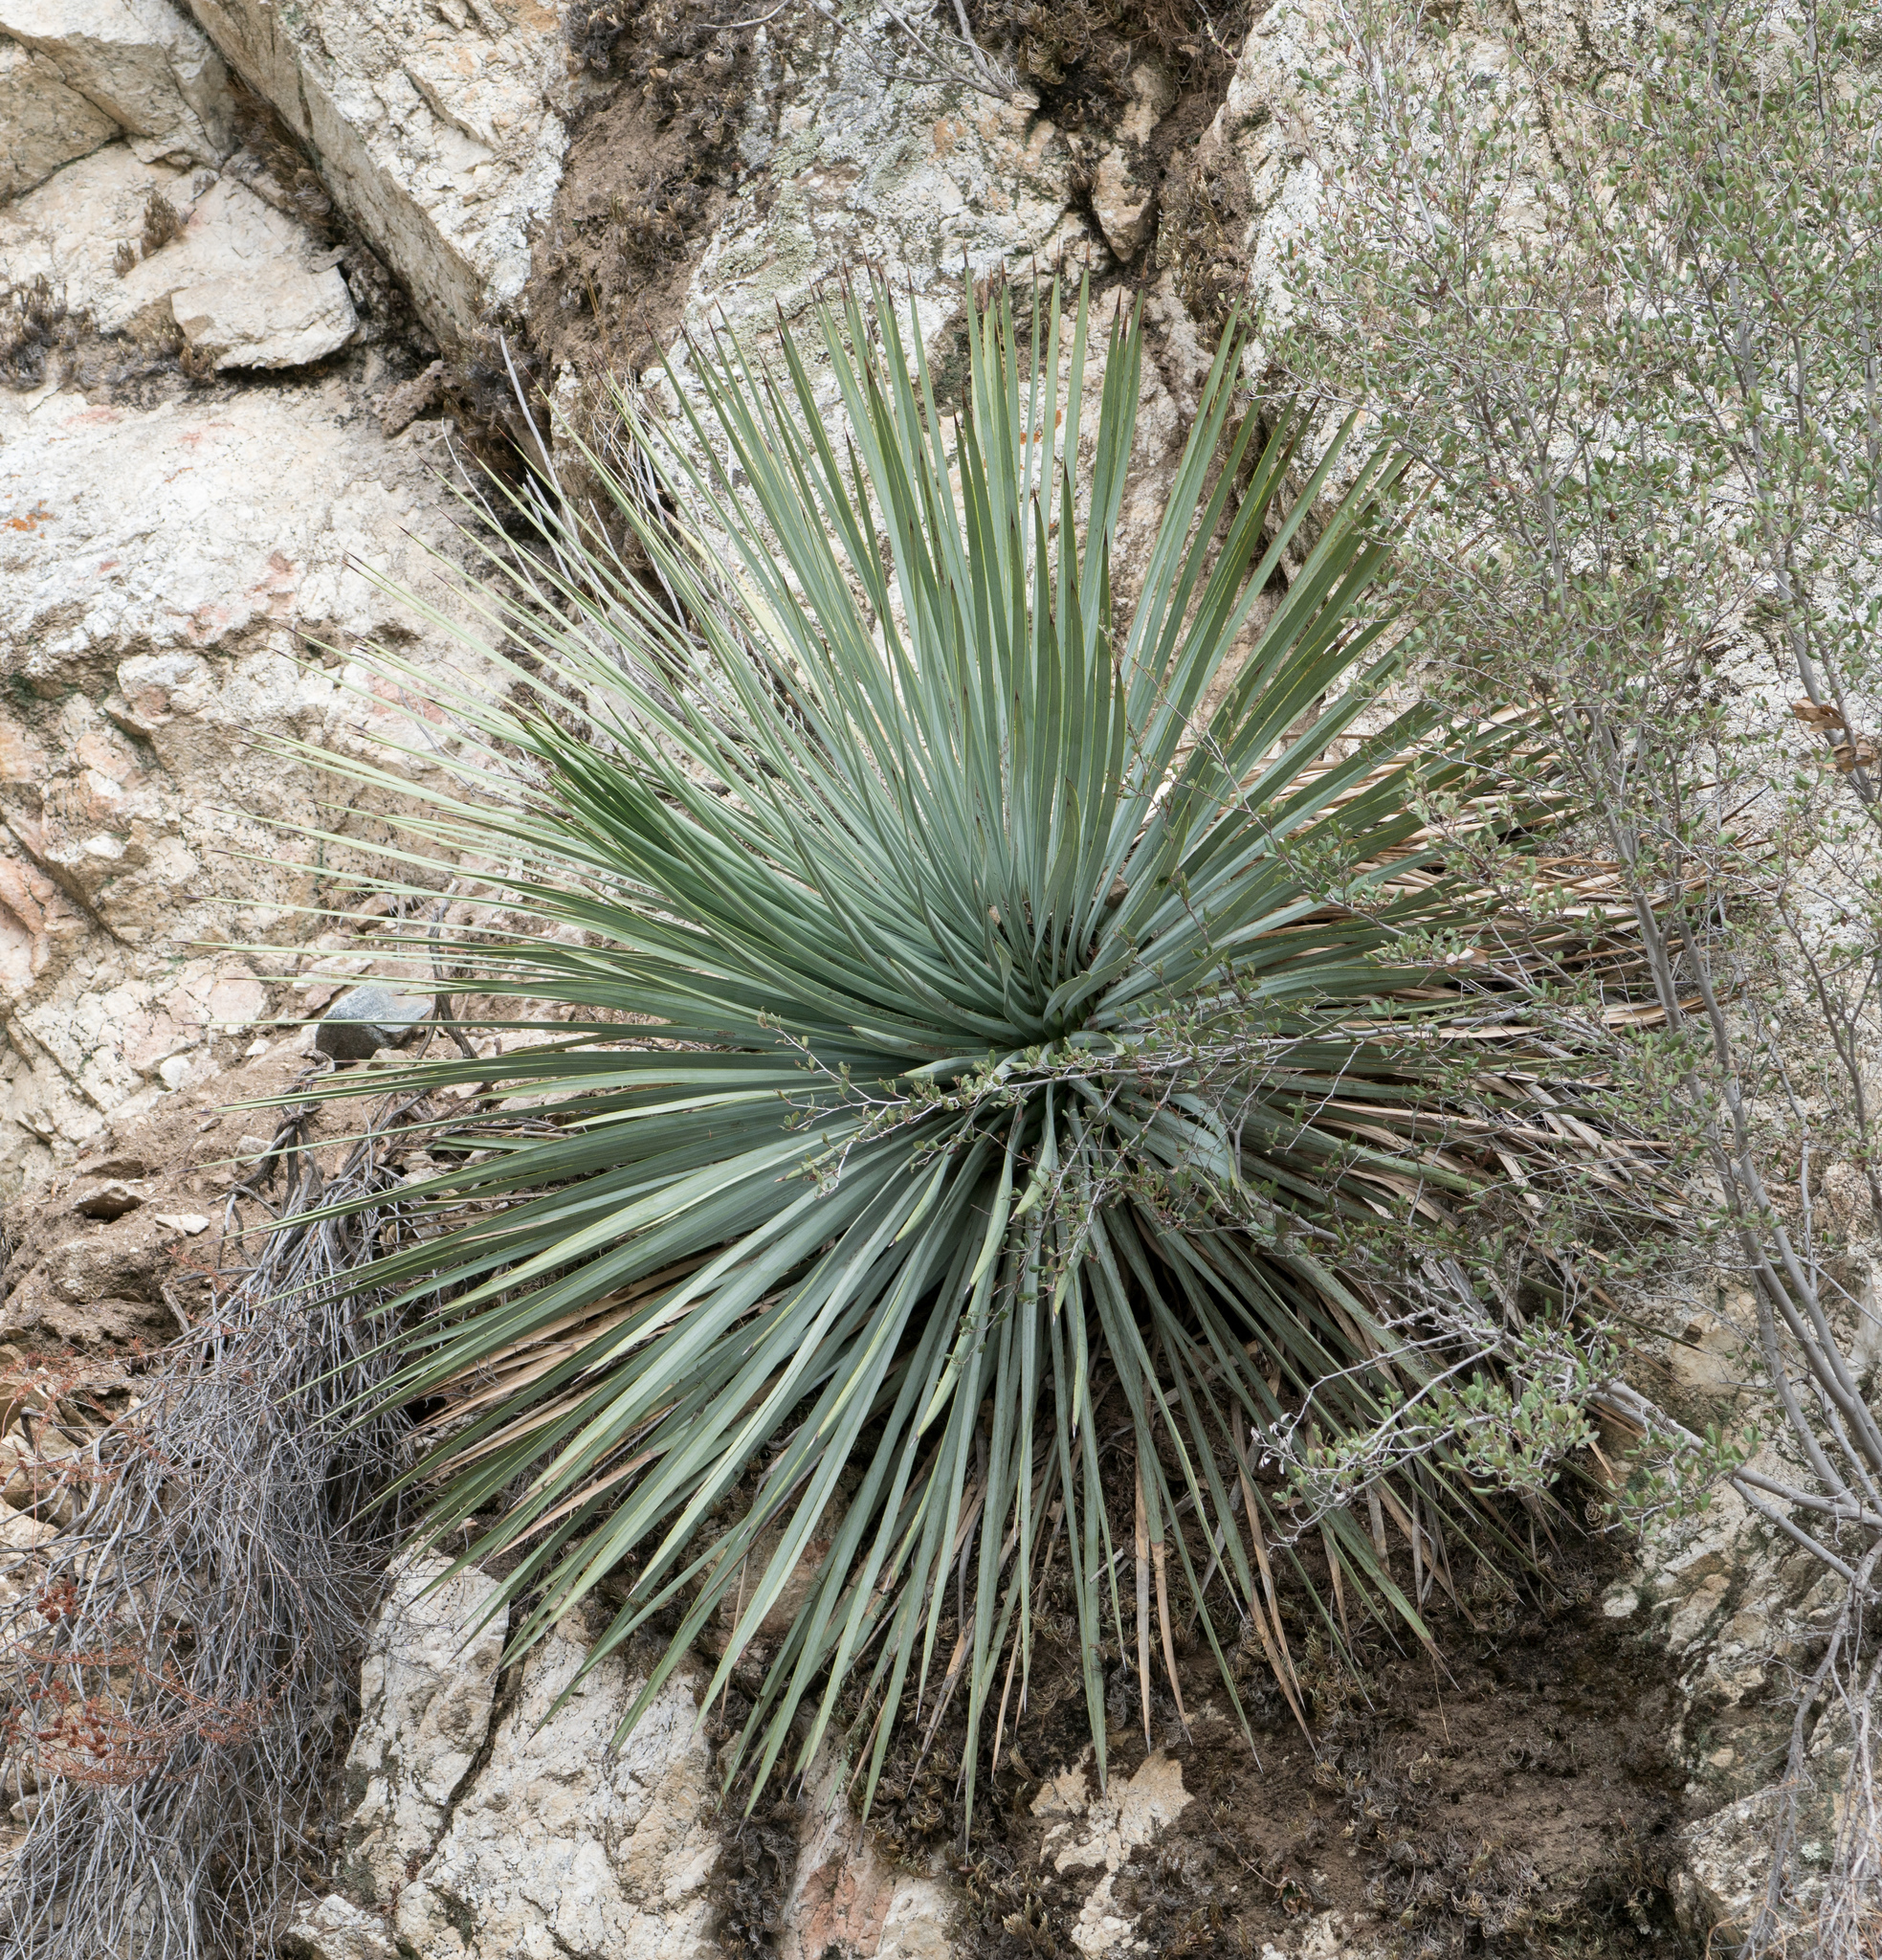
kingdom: Plantae
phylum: Tracheophyta
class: Liliopsida
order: Asparagales
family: Asparagaceae
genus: Hesperoyucca
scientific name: Hesperoyucca whipplei
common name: Our lord's-candle
